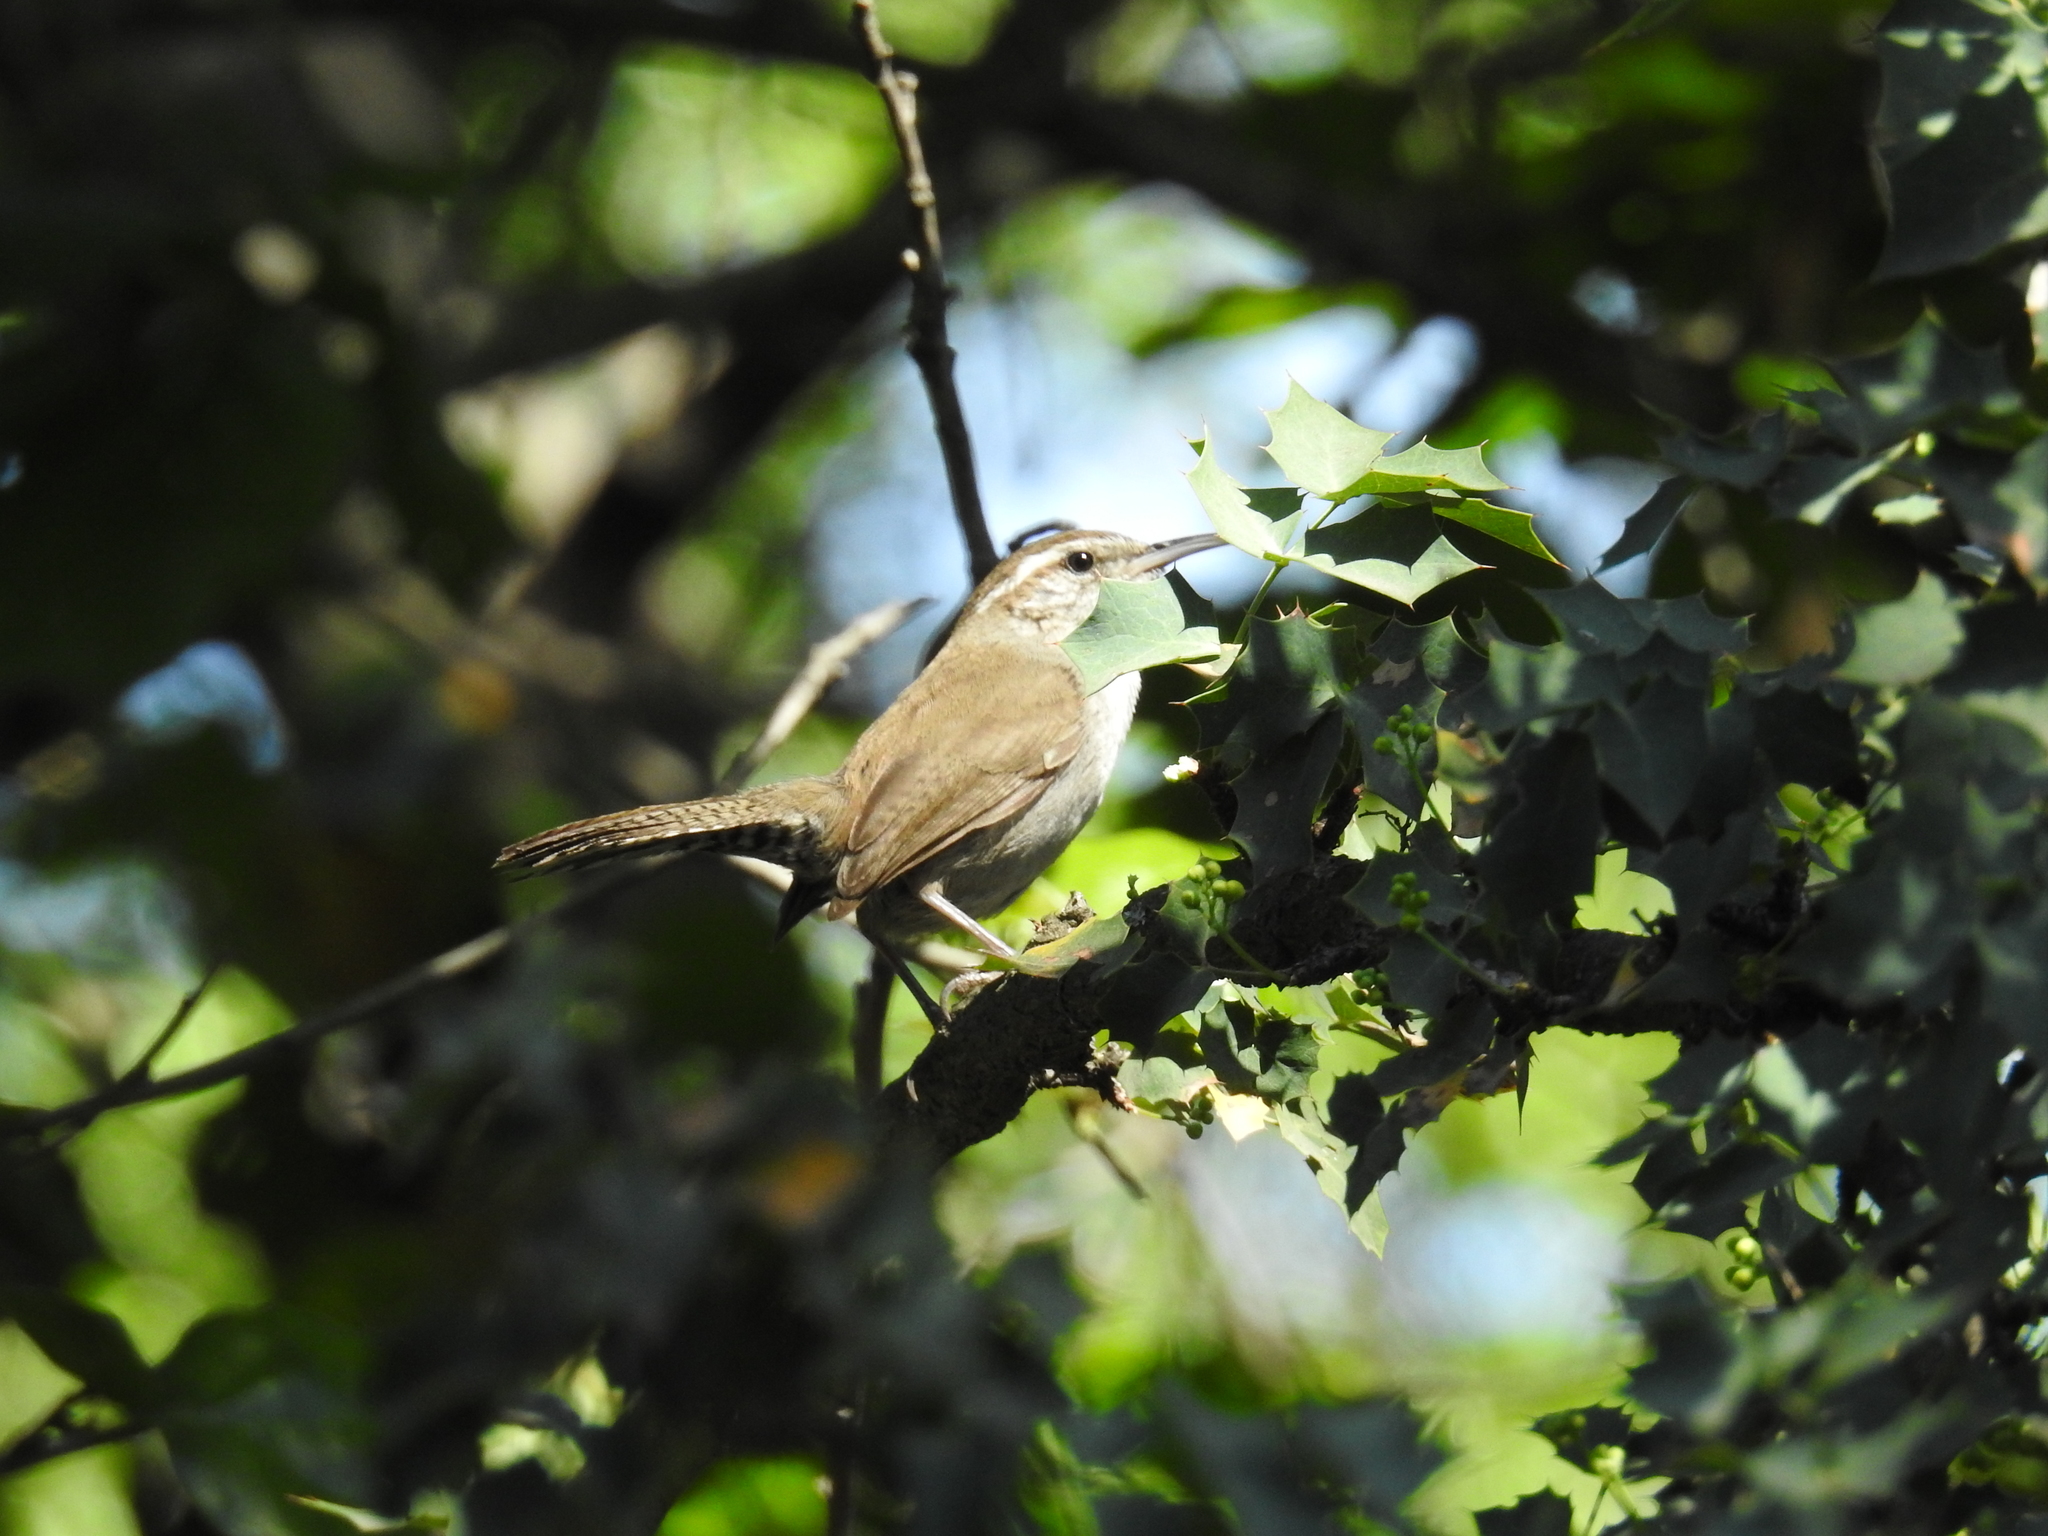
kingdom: Animalia
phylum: Chordata
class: Aves
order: Passeriformes
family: Troglodytidae
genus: Thryomanes
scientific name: Thryomanes bewickii
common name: Bewick's wren
